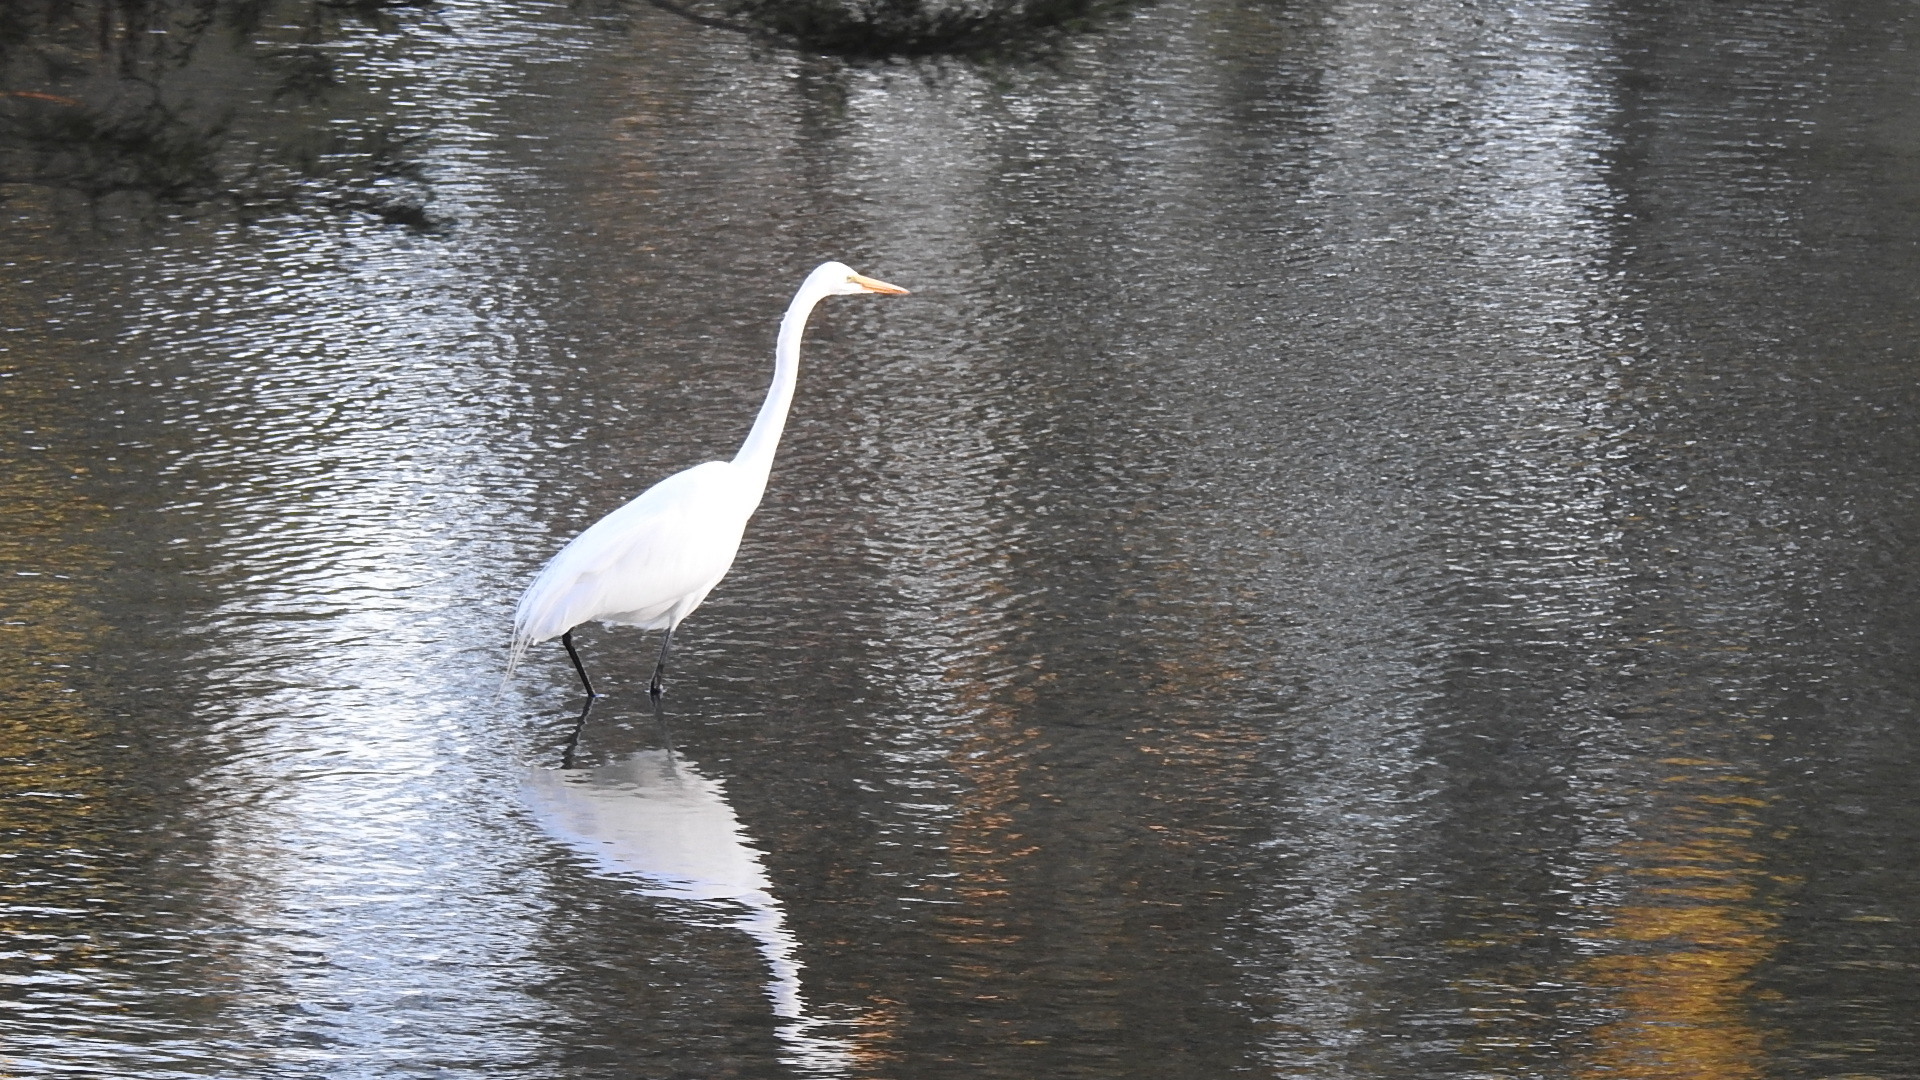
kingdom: Animalia
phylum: Chordata
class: Aves
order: Pelecaniformes
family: Ardeidae
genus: Ardea
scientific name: Ardea alba
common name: Great egret
